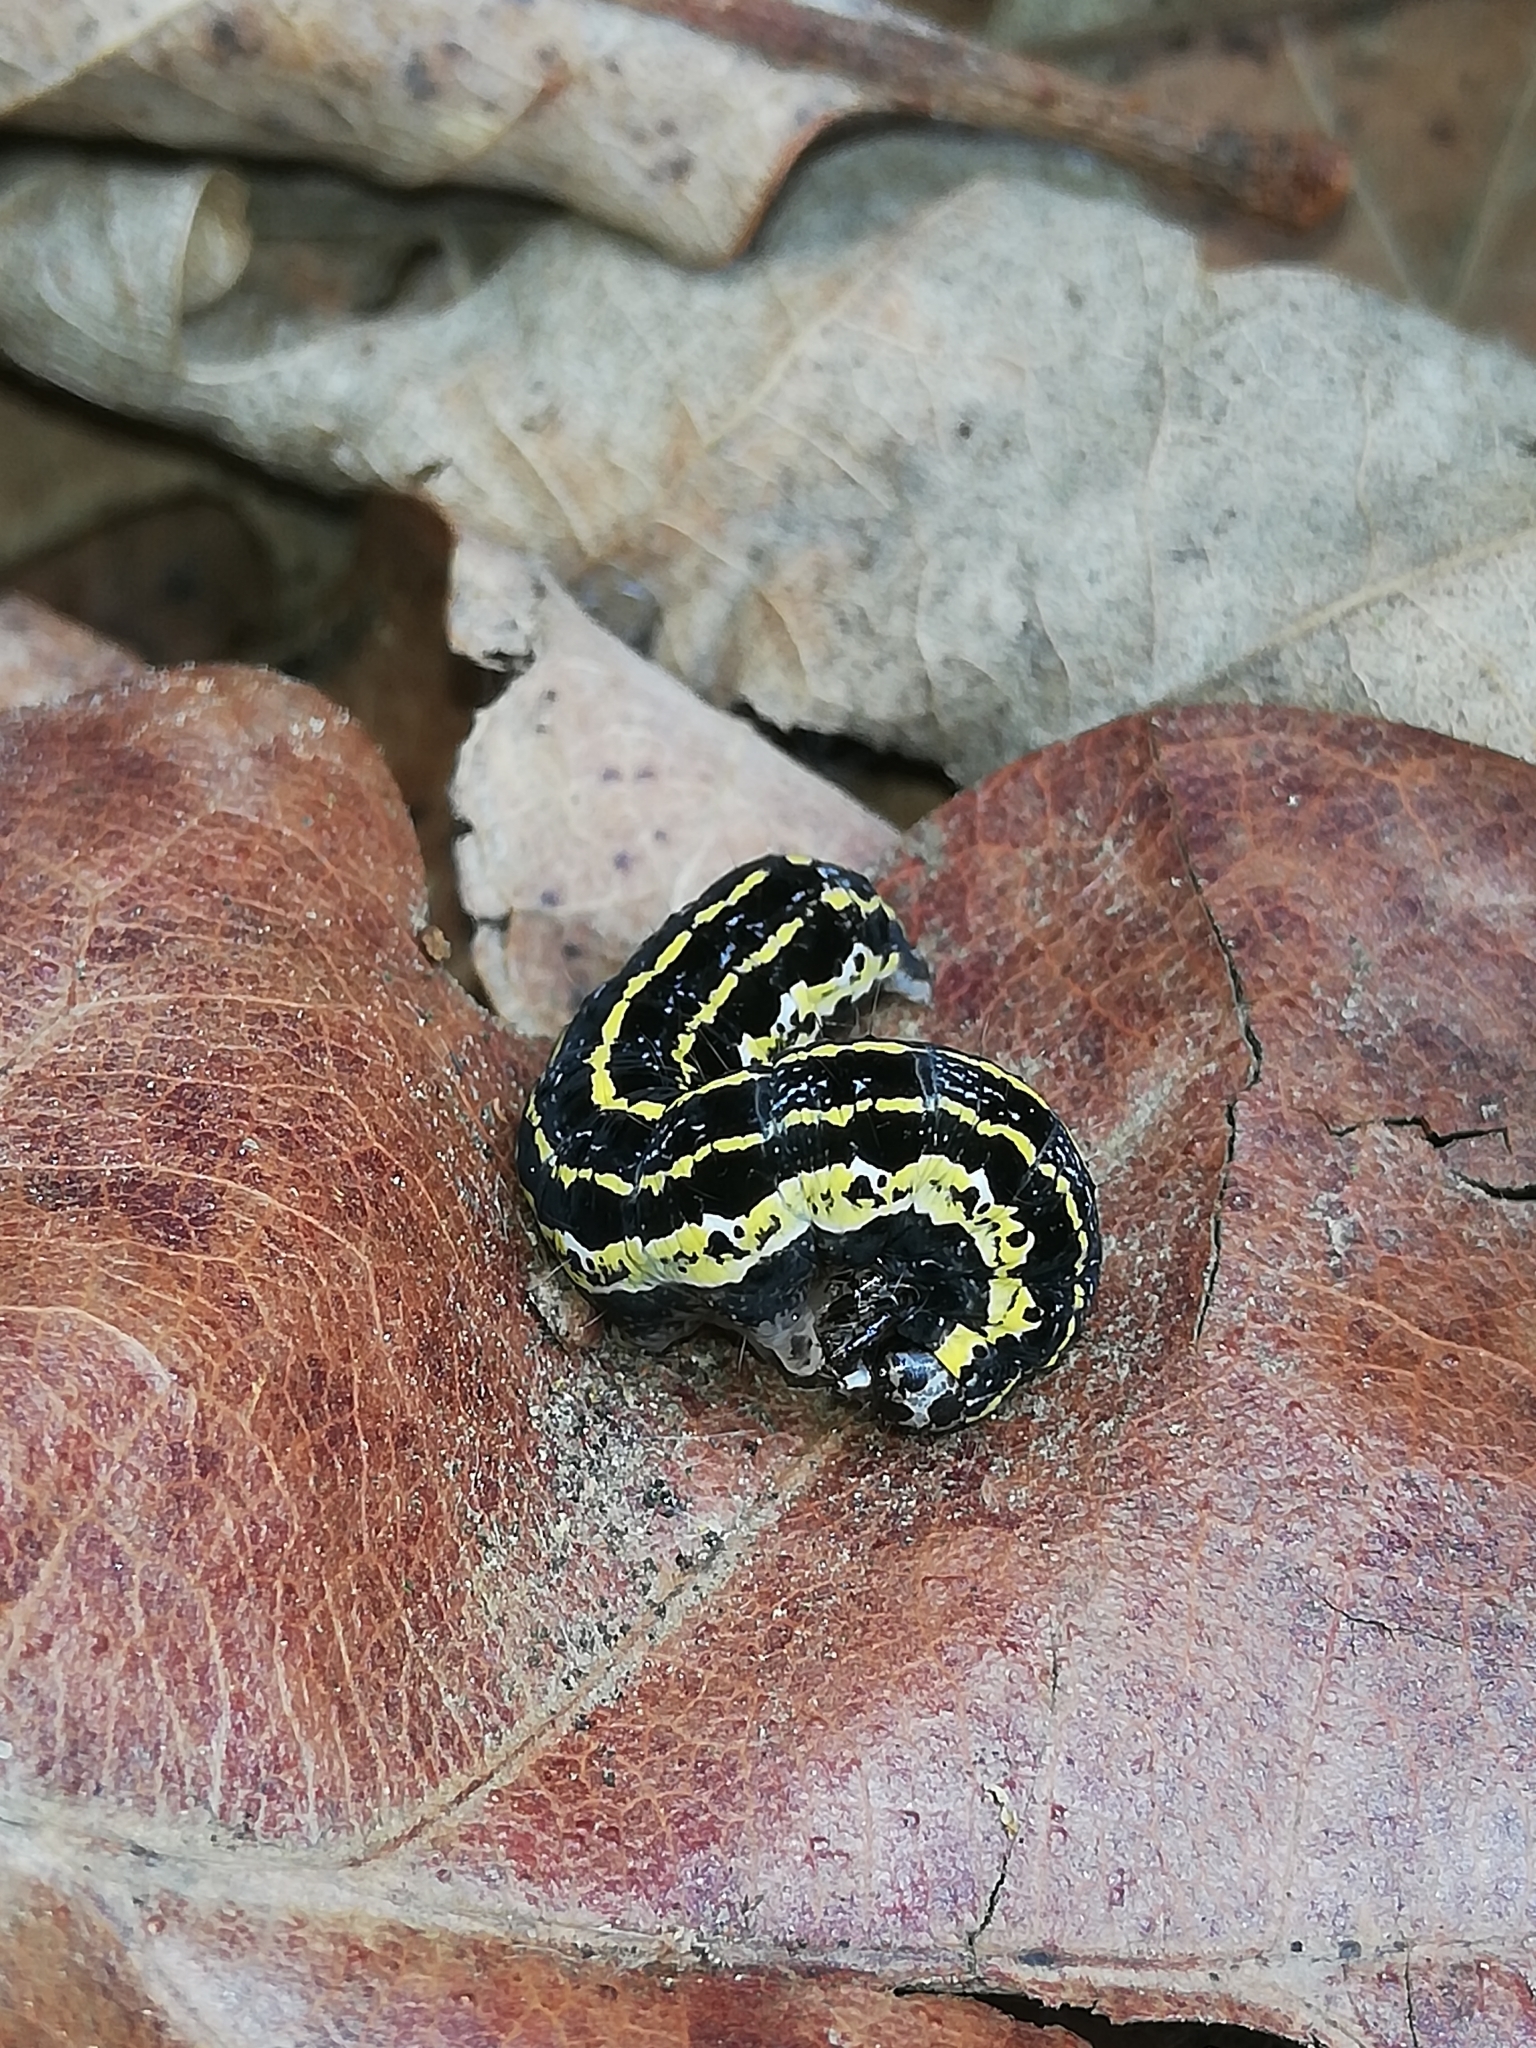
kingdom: Animalia
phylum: Arthropoda
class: Insecta
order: Lepidoptera
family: Noctuidae
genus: Orthosia
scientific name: Orthosia miniosa
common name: Blossom underwing
